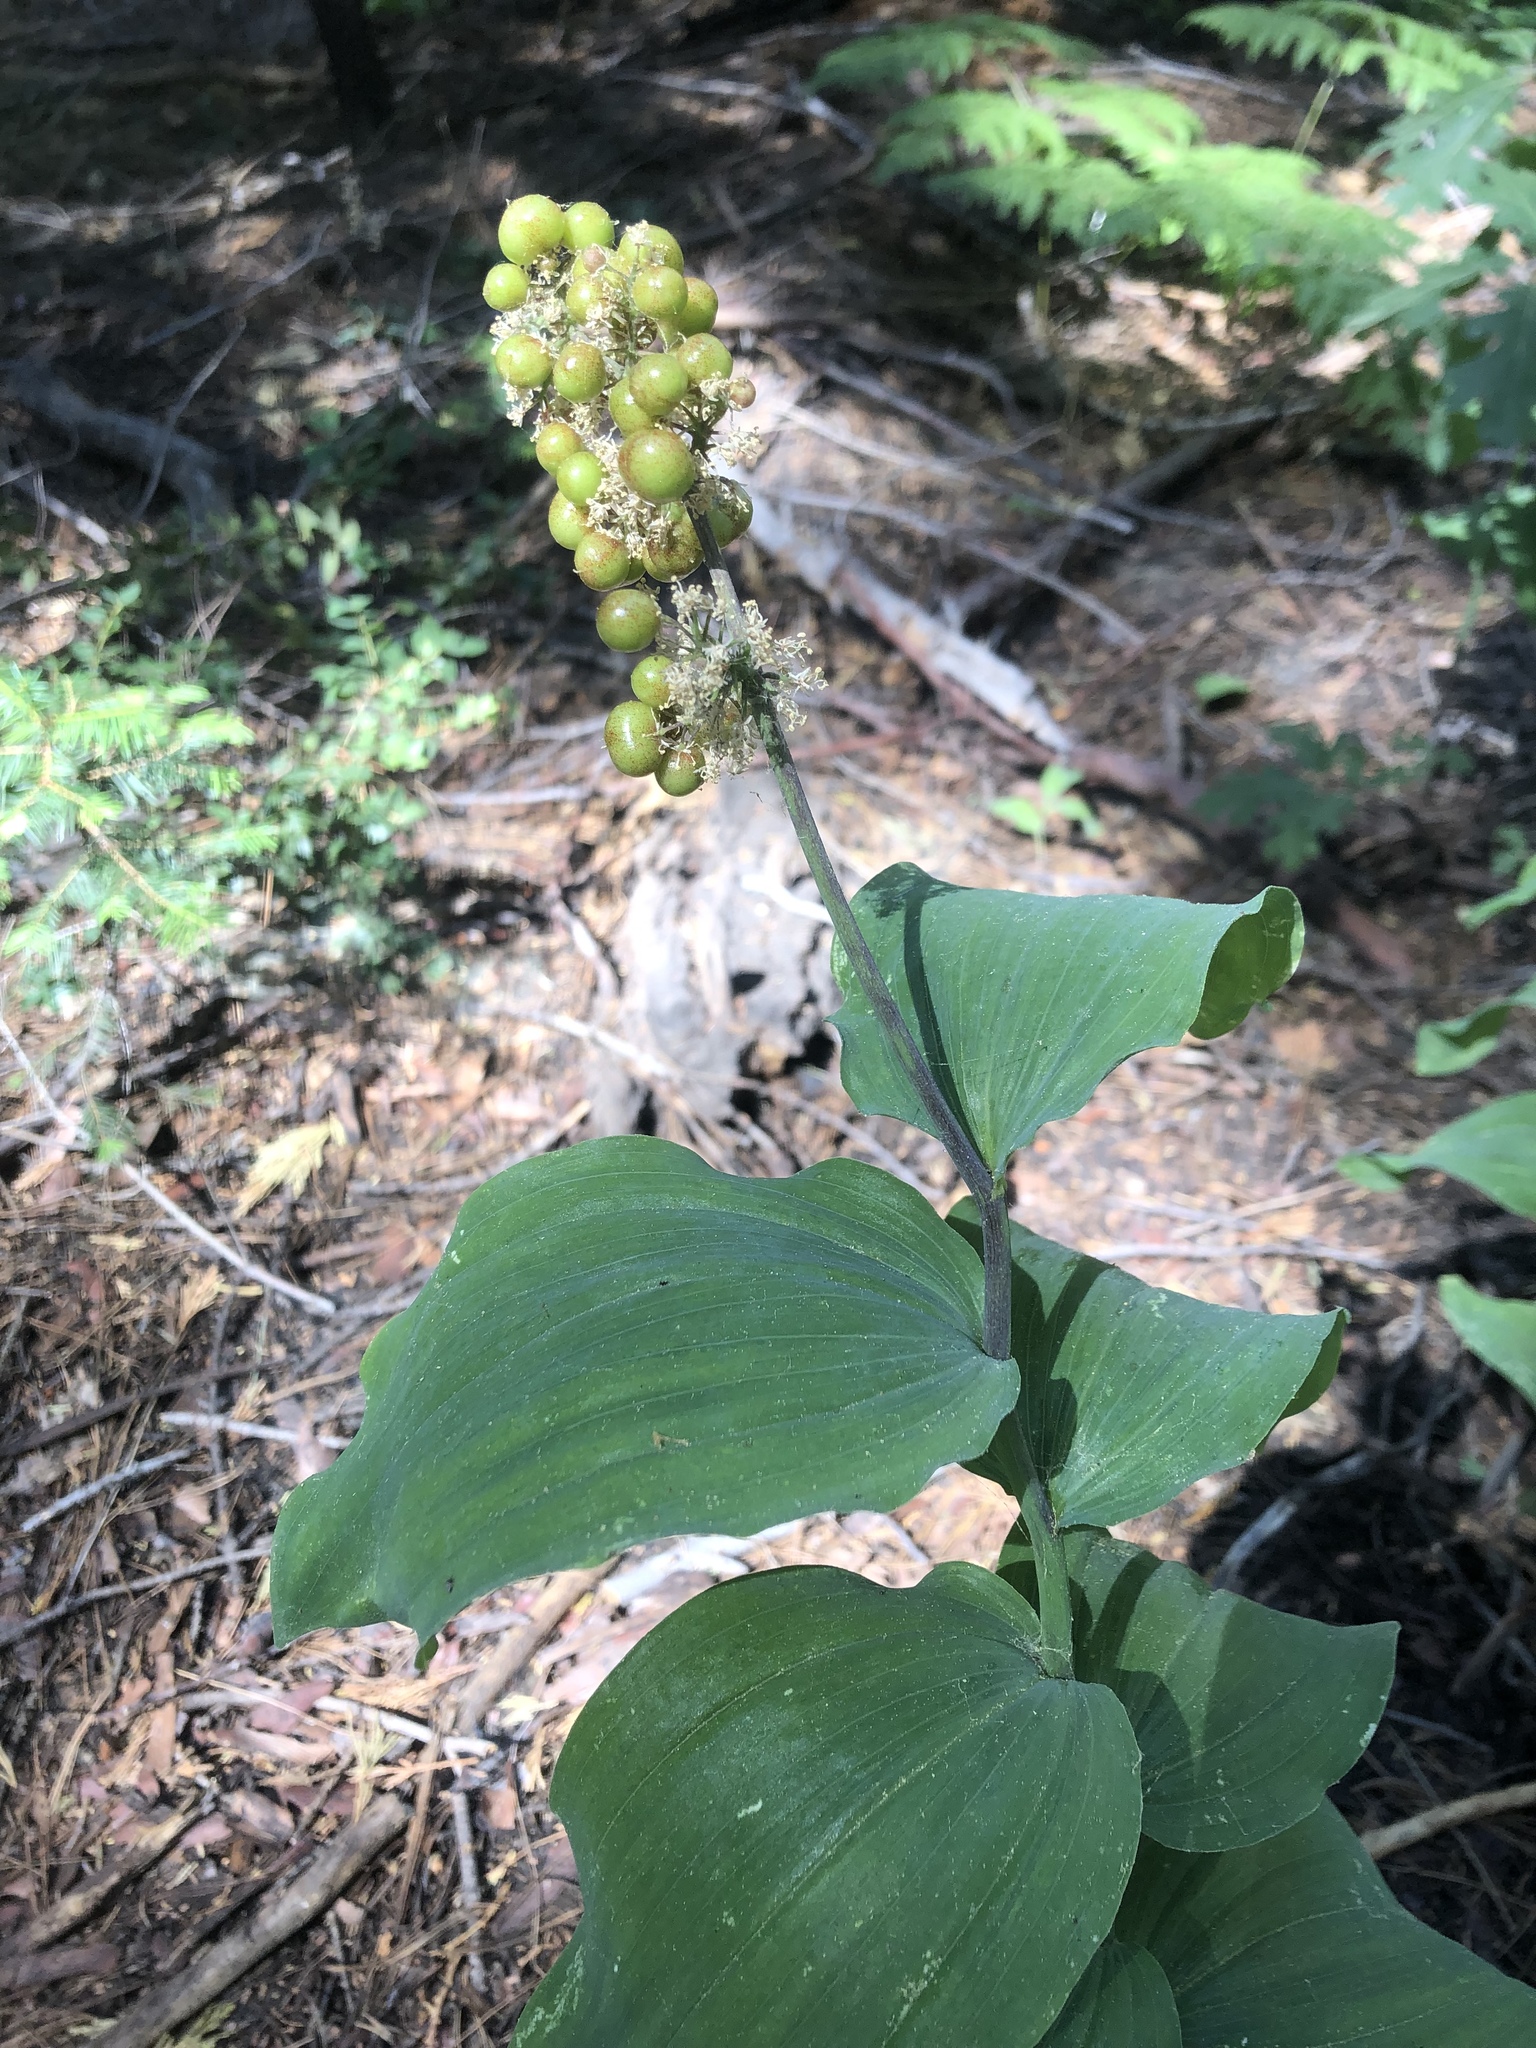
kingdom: Plantae
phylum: Tracheophyta
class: Liliopsida
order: Asparagales
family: Asparagaceae
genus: Maianthemum
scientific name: Maianthemum racemosum
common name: False spikenard
